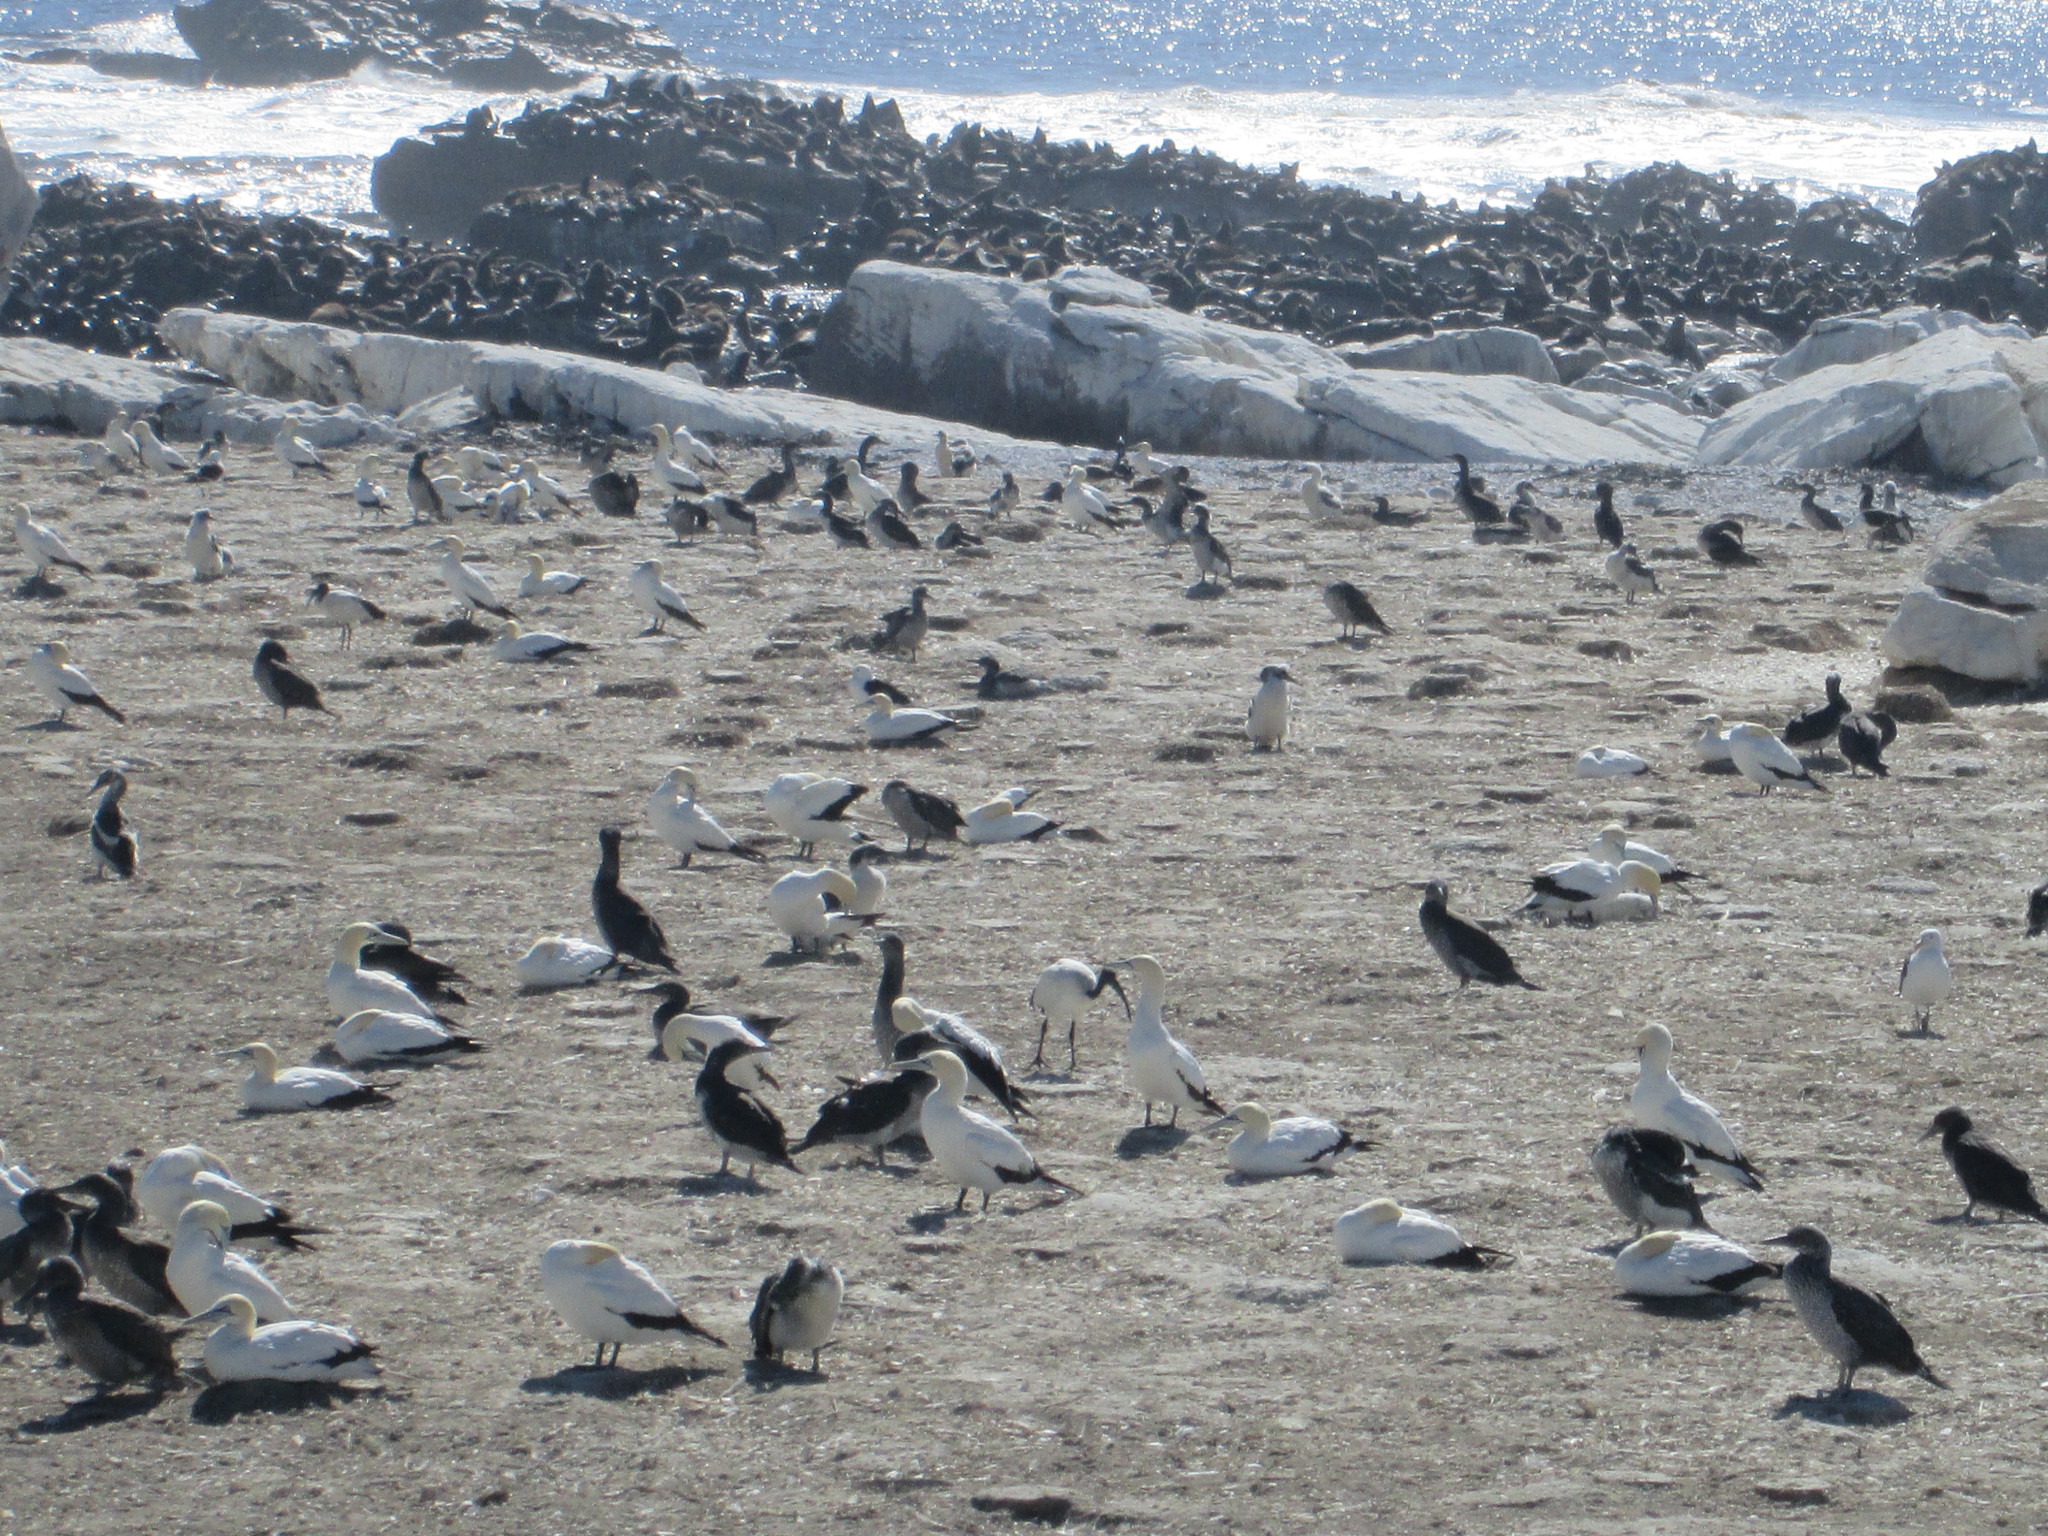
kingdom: Animalia
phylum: Chordata
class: Aves
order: Suliformes
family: Sulidae
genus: Morus
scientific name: Morus capensis
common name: Cape gannet
